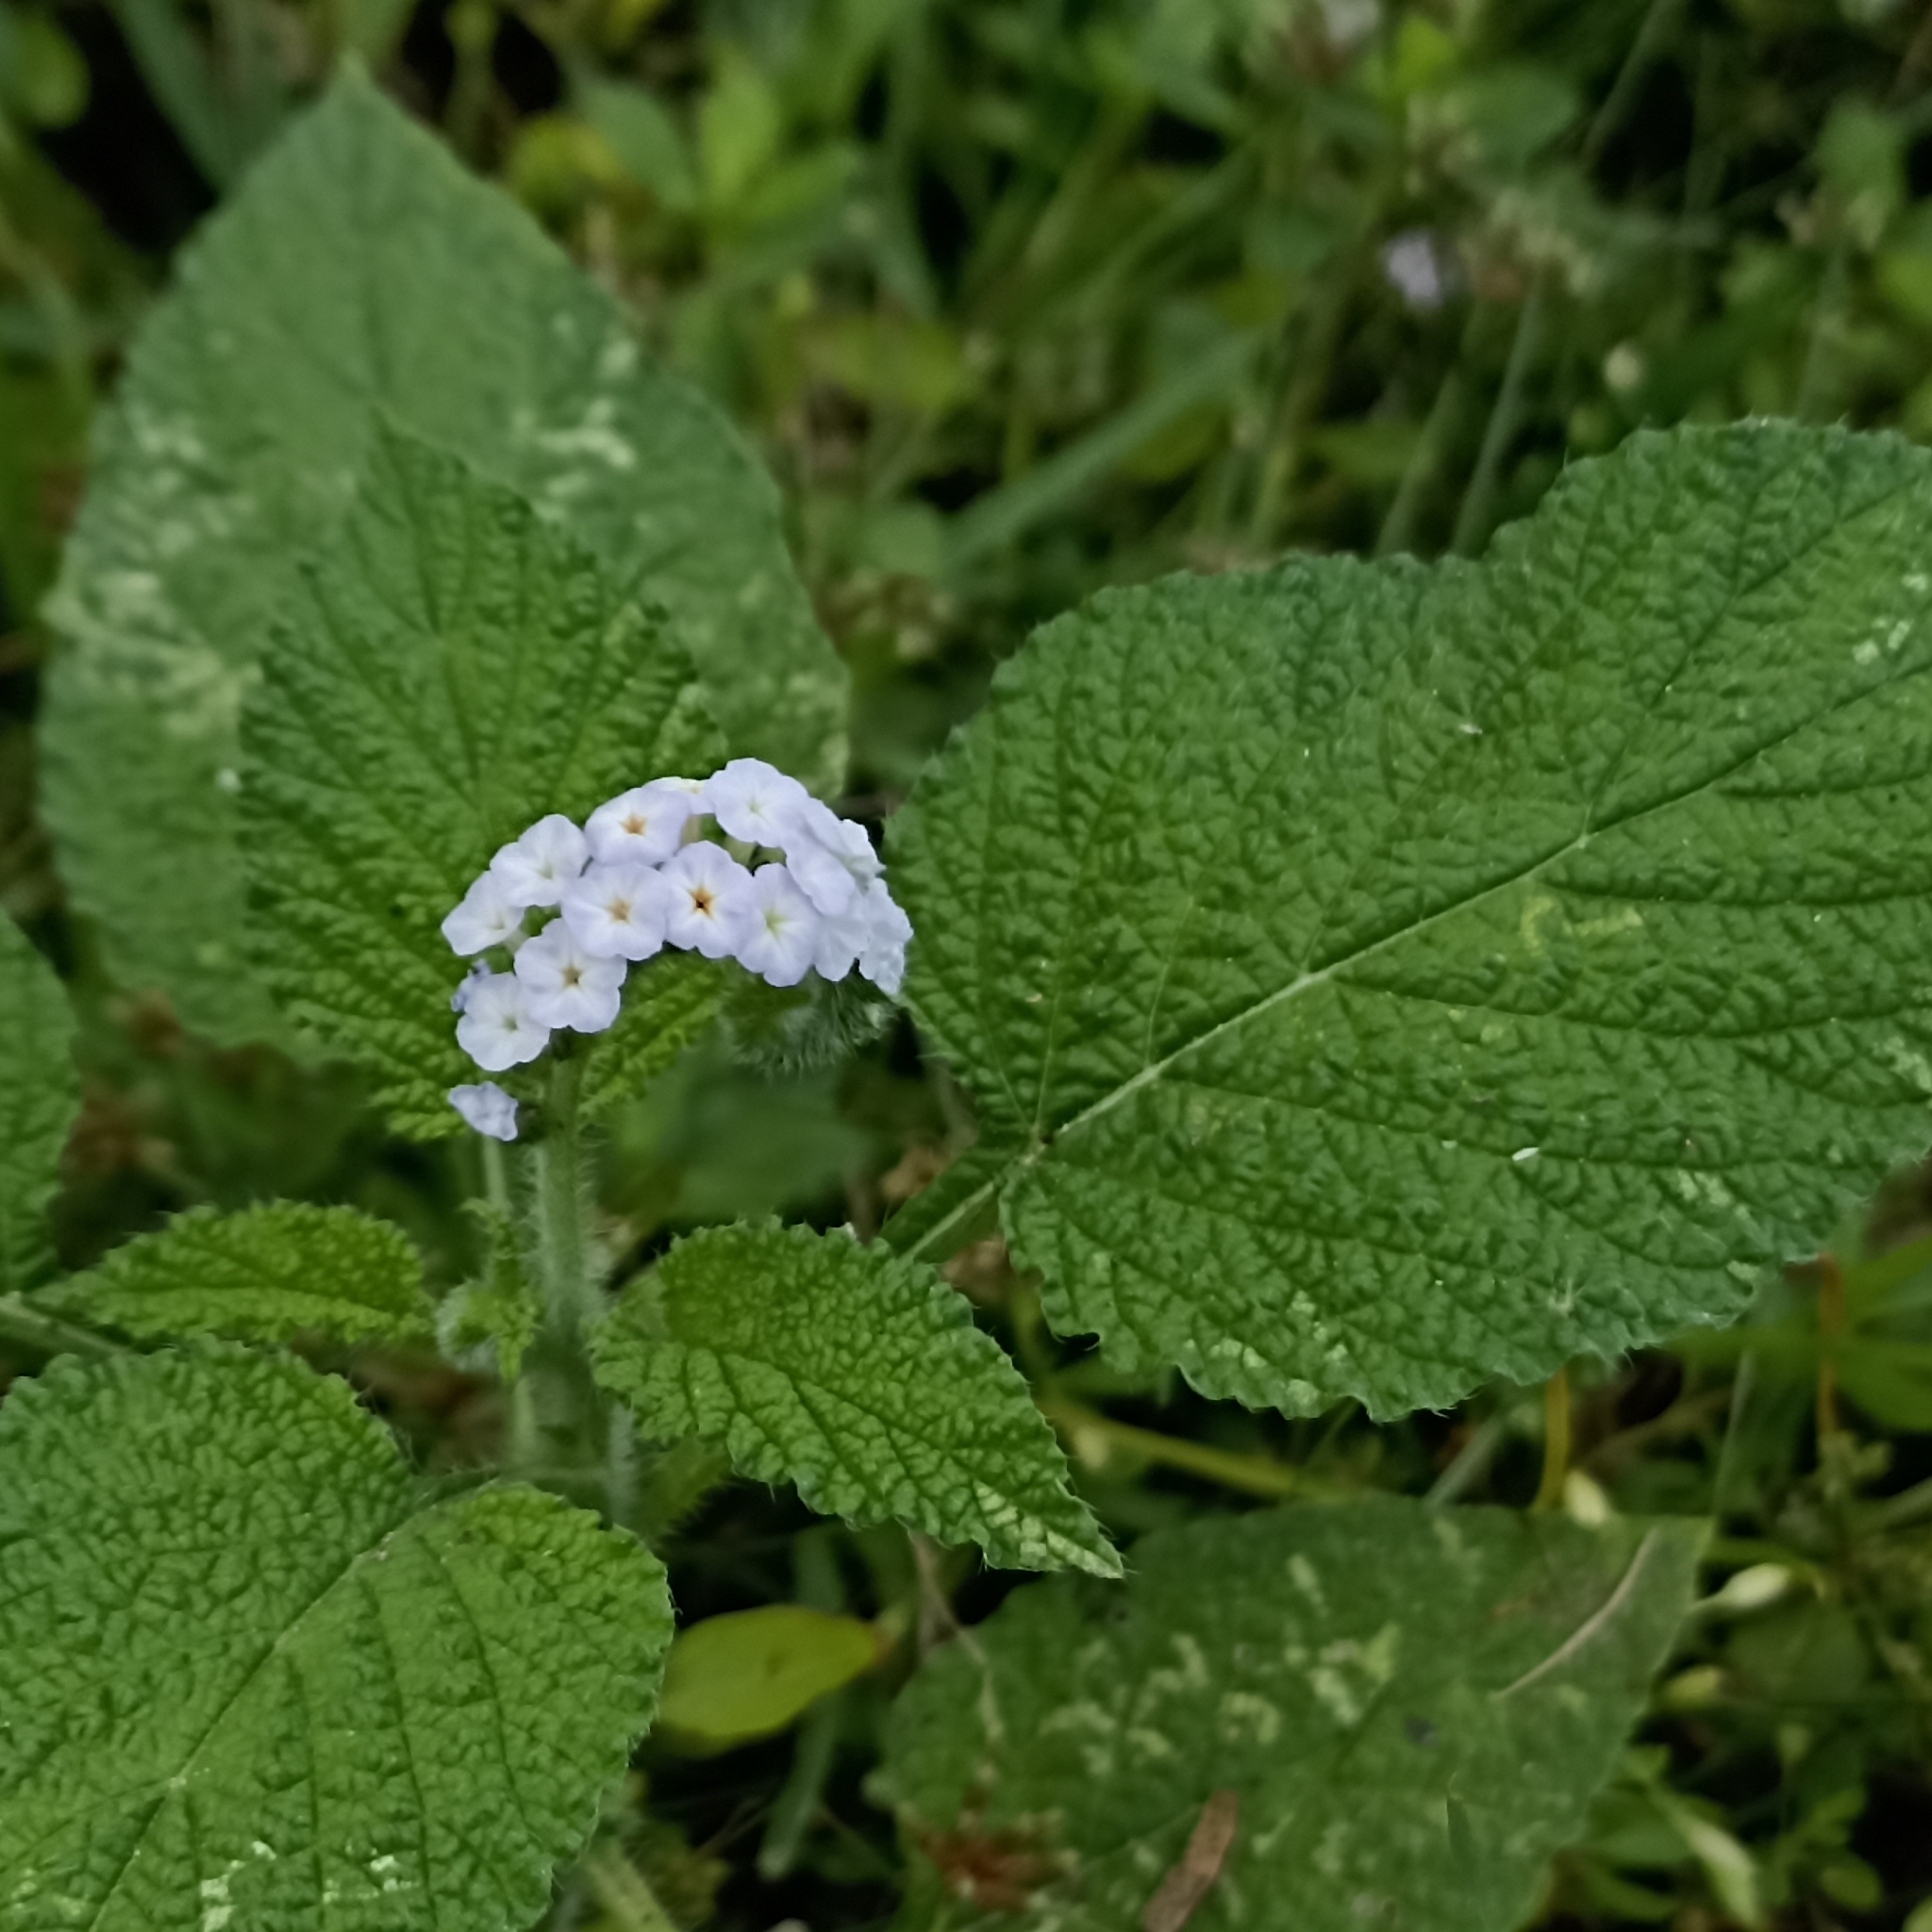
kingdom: Plantae
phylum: Tracheophyta
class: Magnoliopsida
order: Boraginales
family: Heliotropiaceae
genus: Heliotropium
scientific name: Heliotropium indicum
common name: Indian heliotrope
